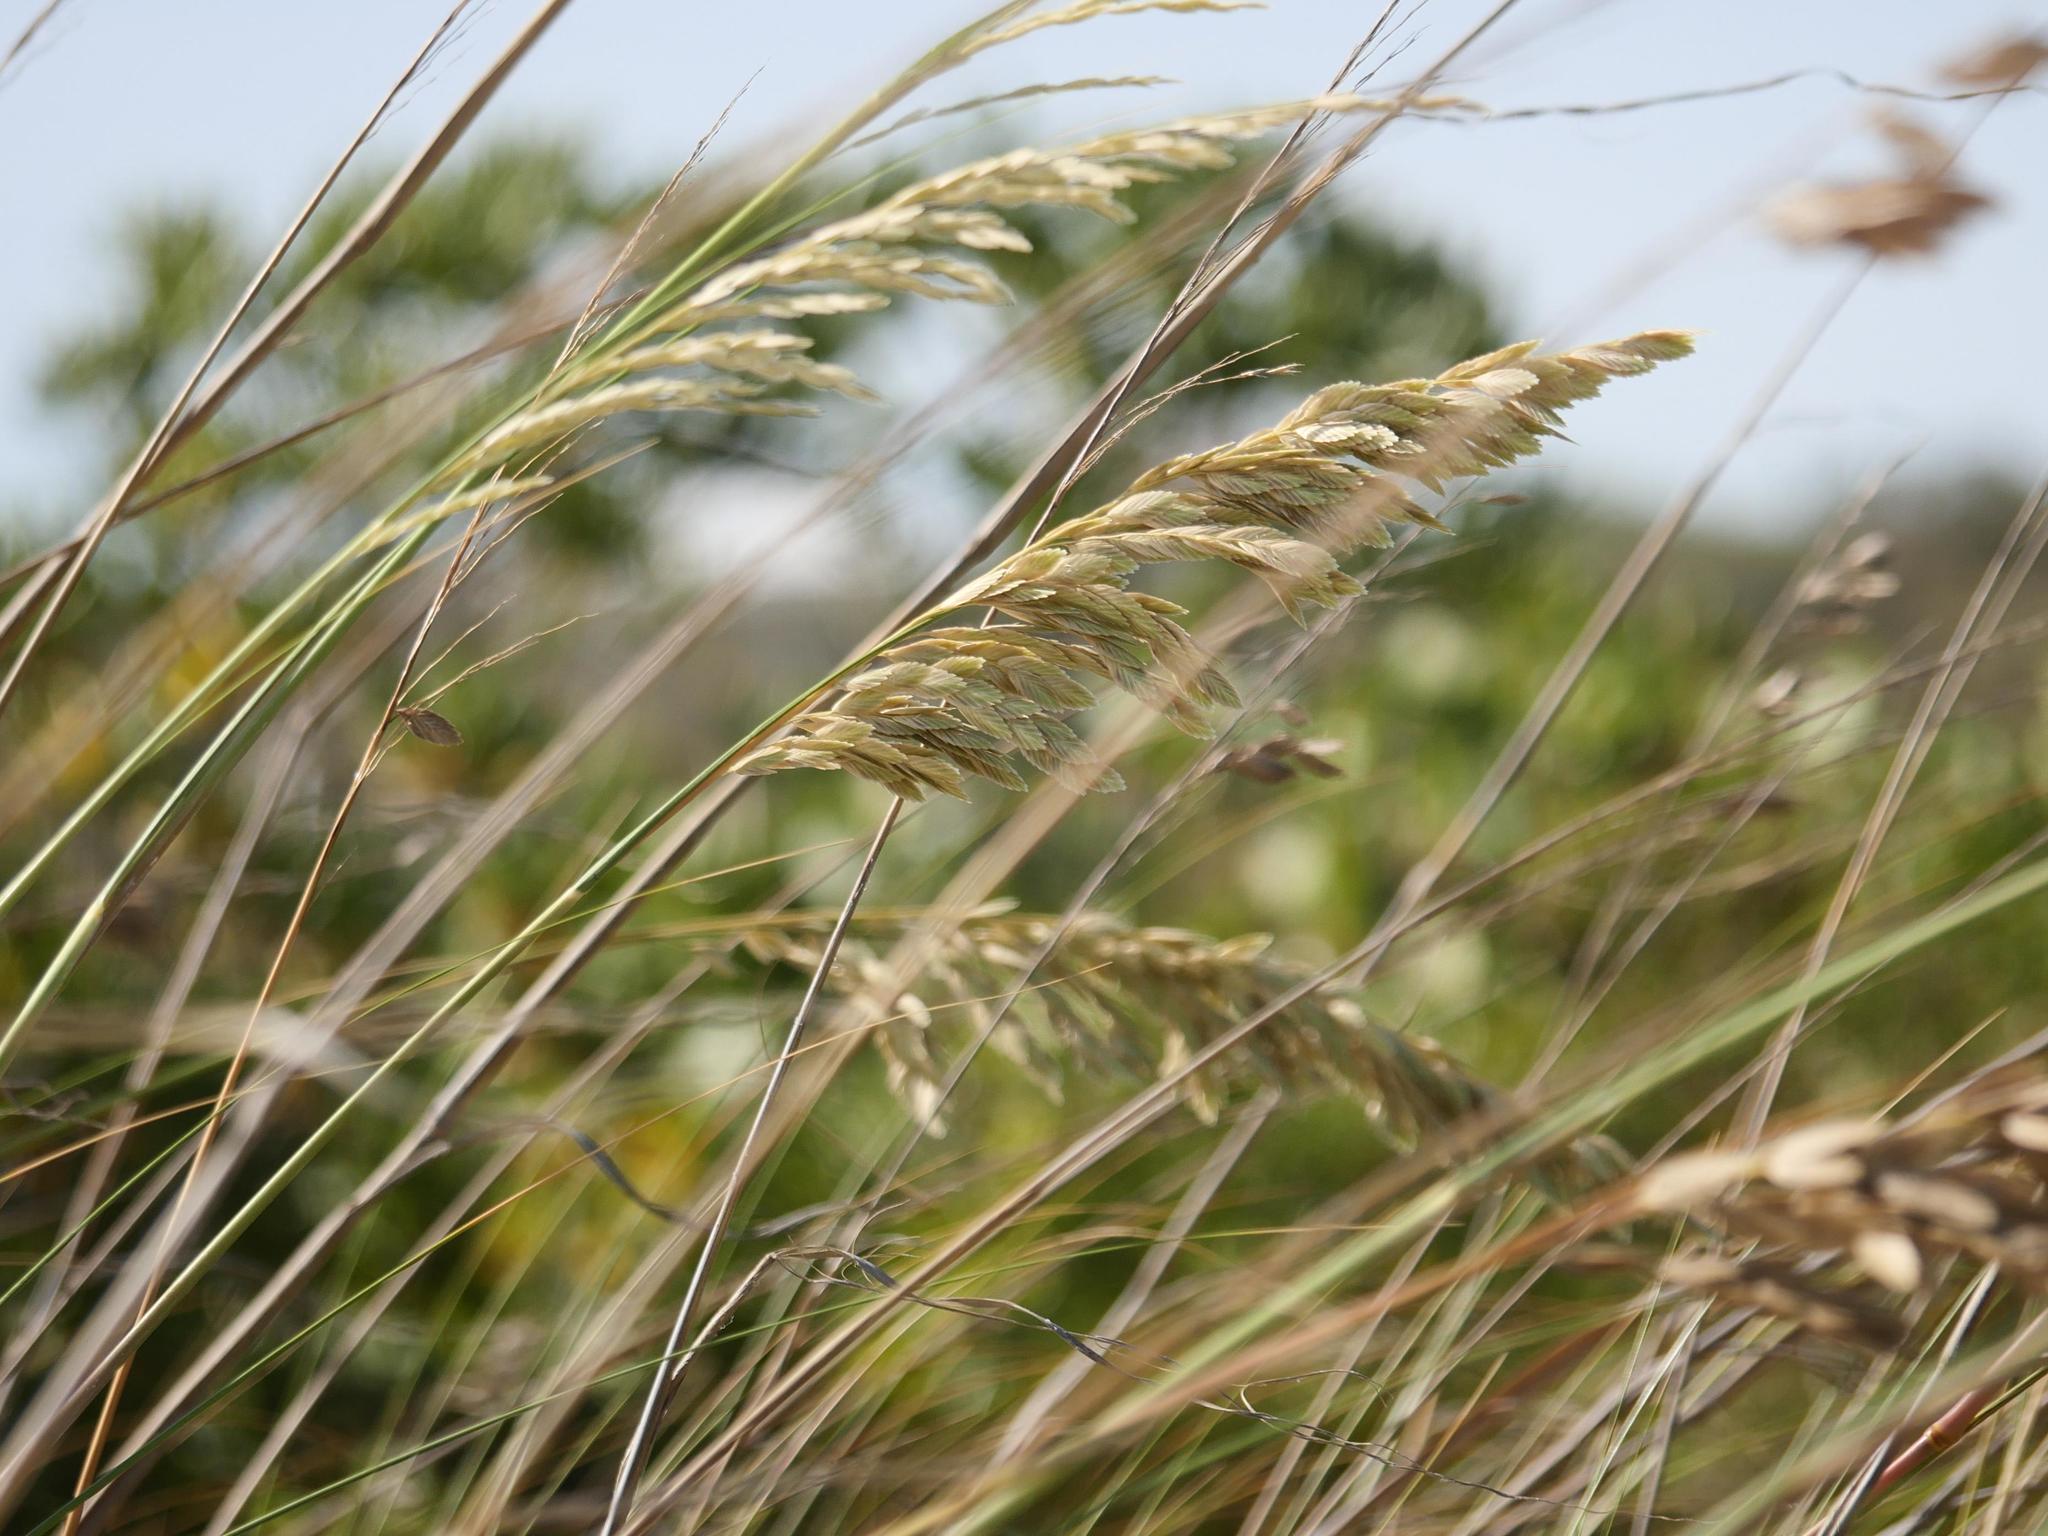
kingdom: Plantae
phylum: Tracheophyta
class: Liliopsida
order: Poales
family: Poaceae
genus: Uniola
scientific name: Uniola paniculata
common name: Seaside-oats
